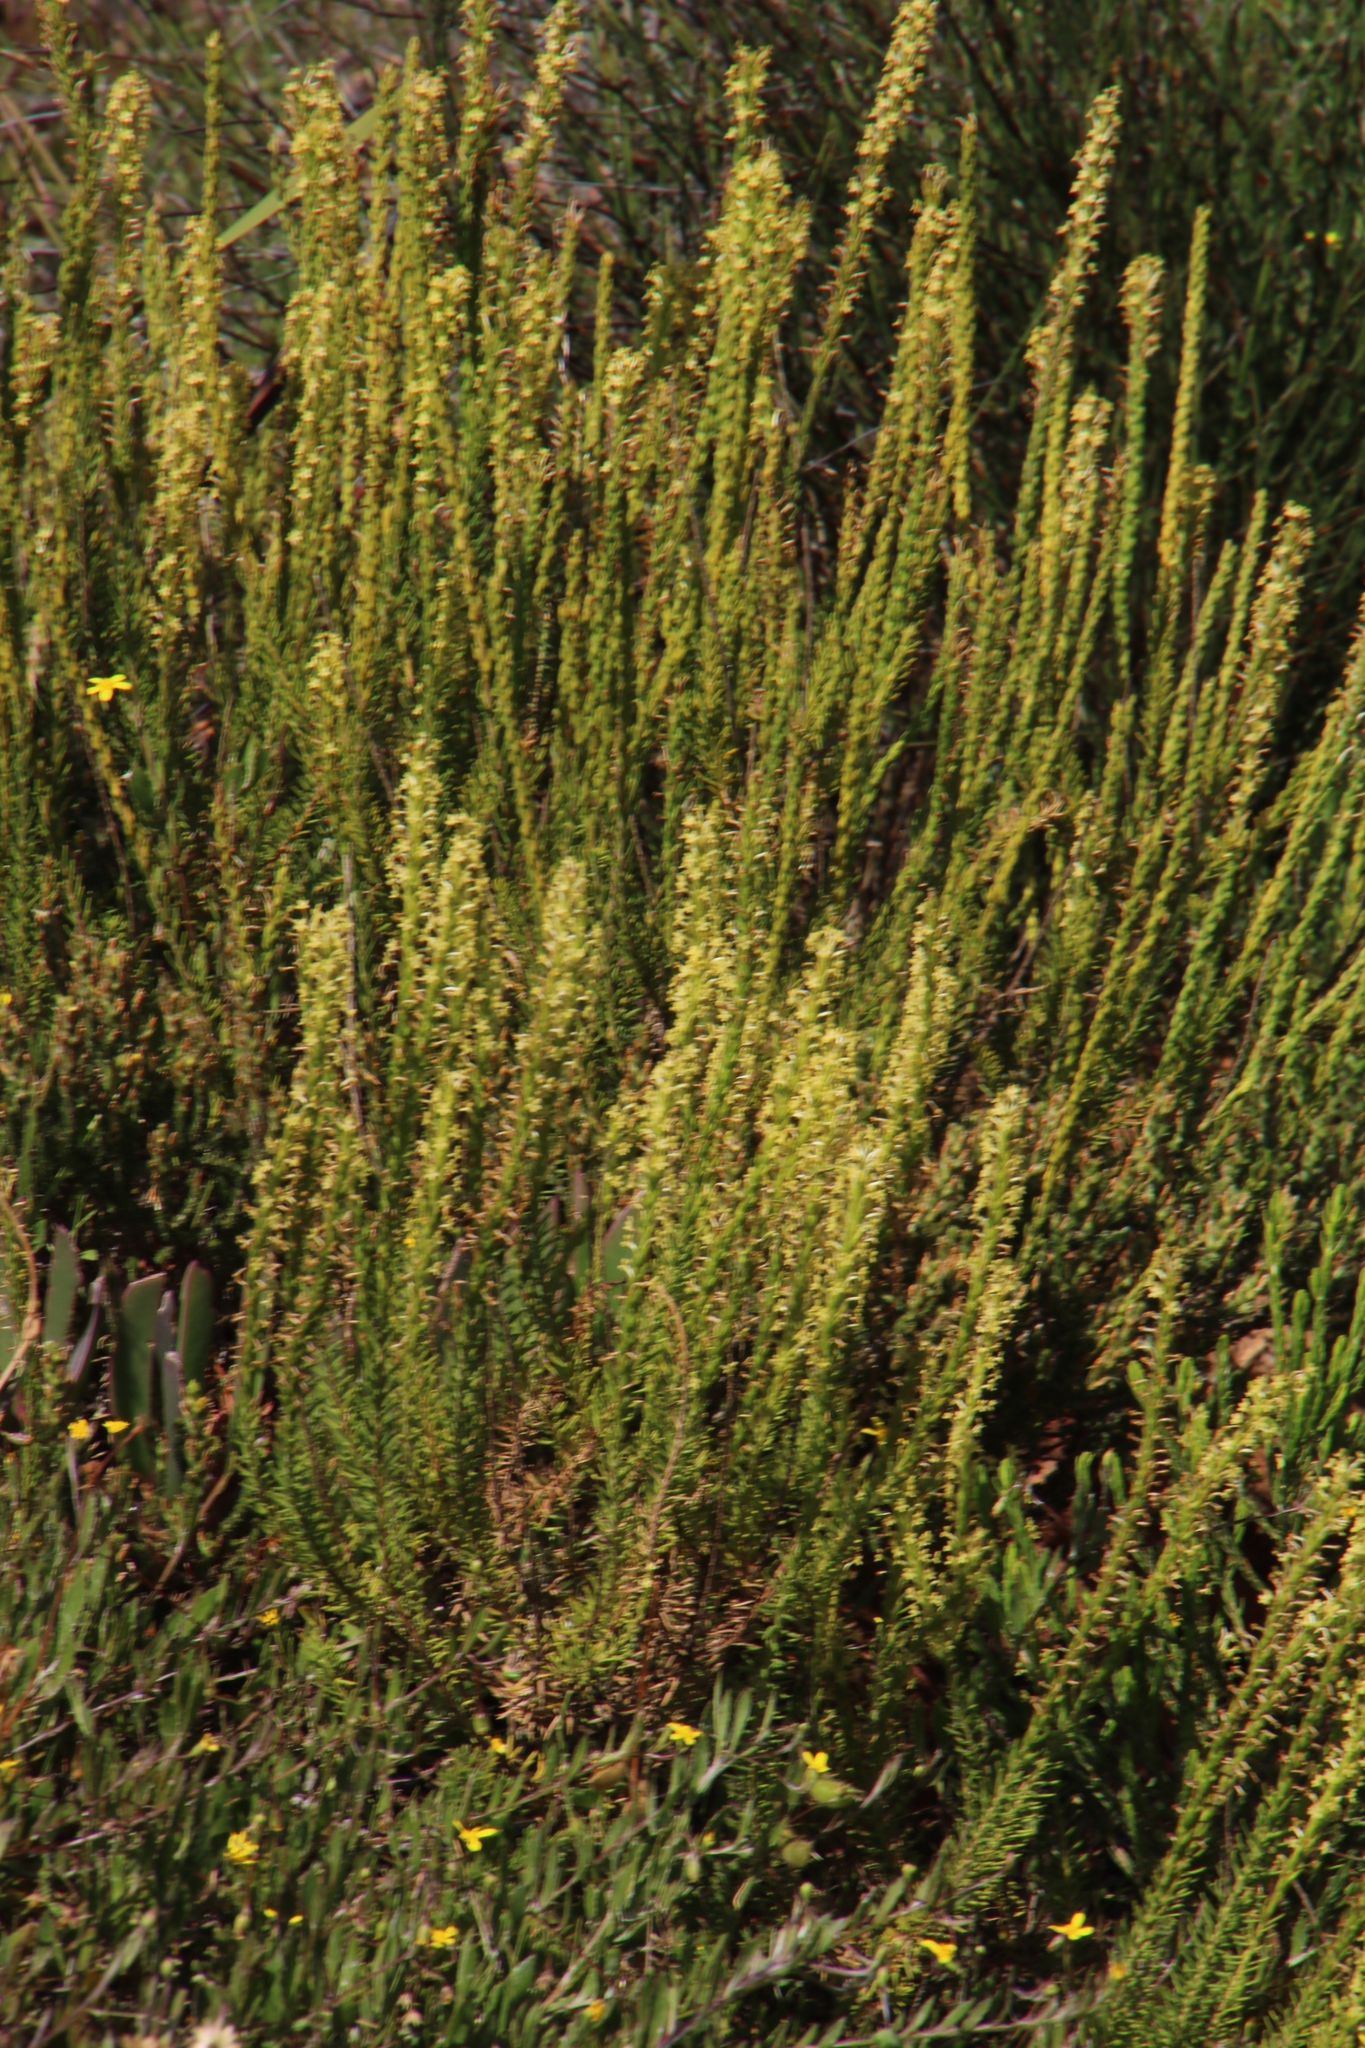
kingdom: Plantae
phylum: Tracheophyta
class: Magnoliopsida
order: Lamiales
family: Scrophulariaceae
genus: Microdon
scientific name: Microdon dubius
